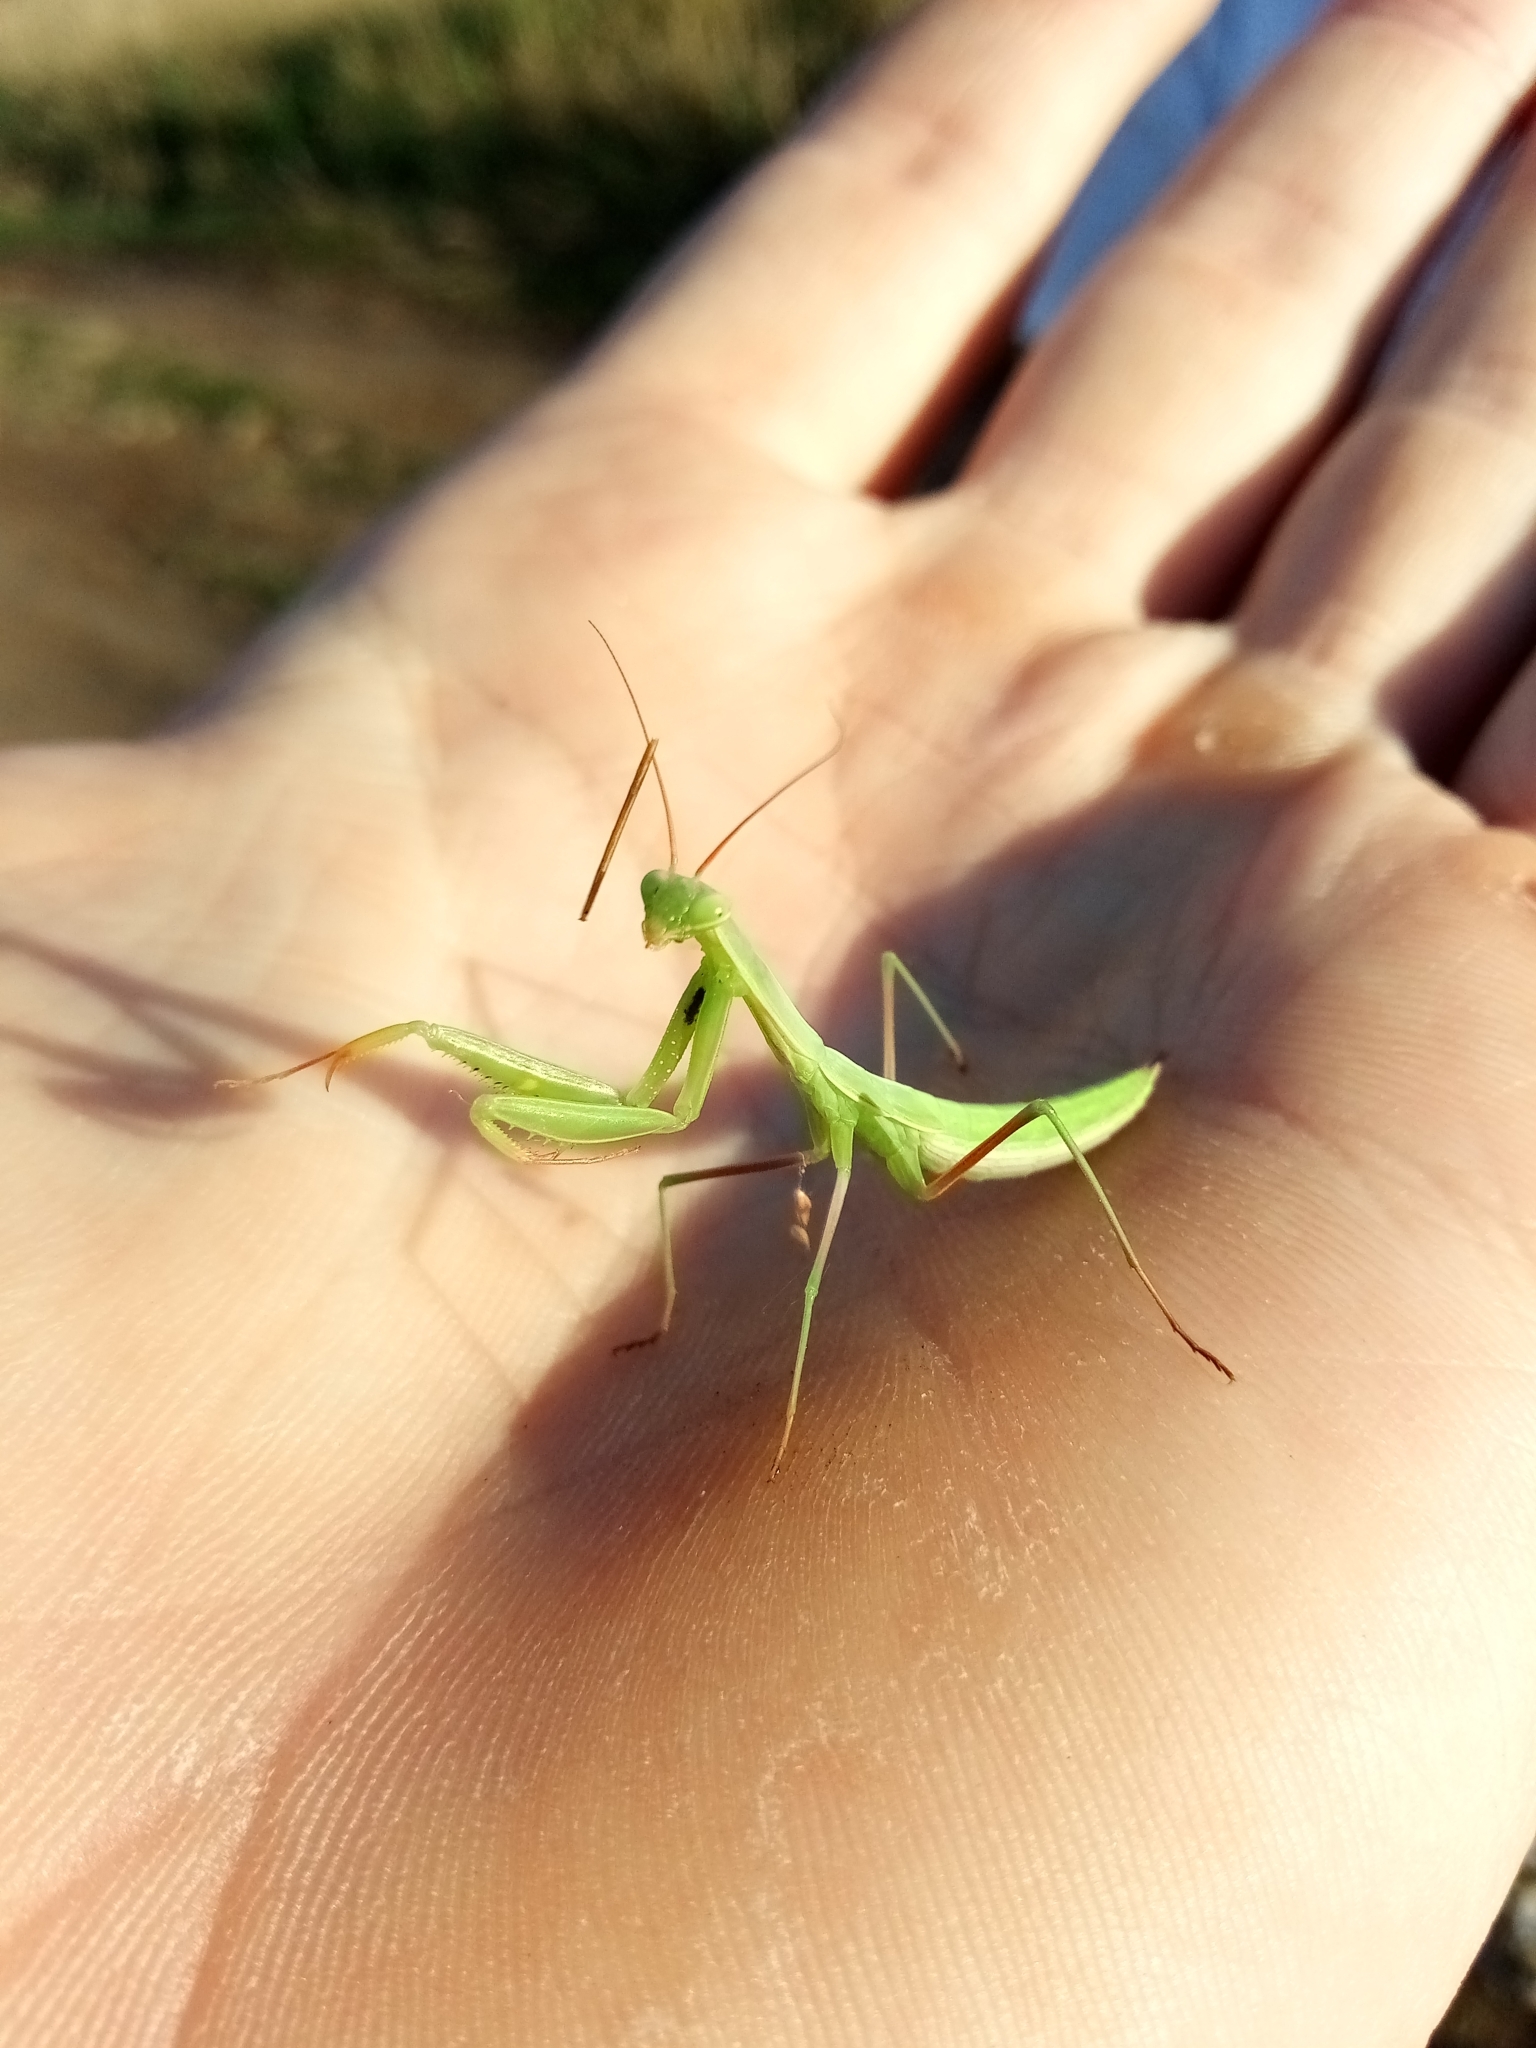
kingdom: Animalia
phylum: Arthropoda
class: Insecta
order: Mantodea
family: Mantidae
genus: Mantis
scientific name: Mantis religiosa
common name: Praying mantis
